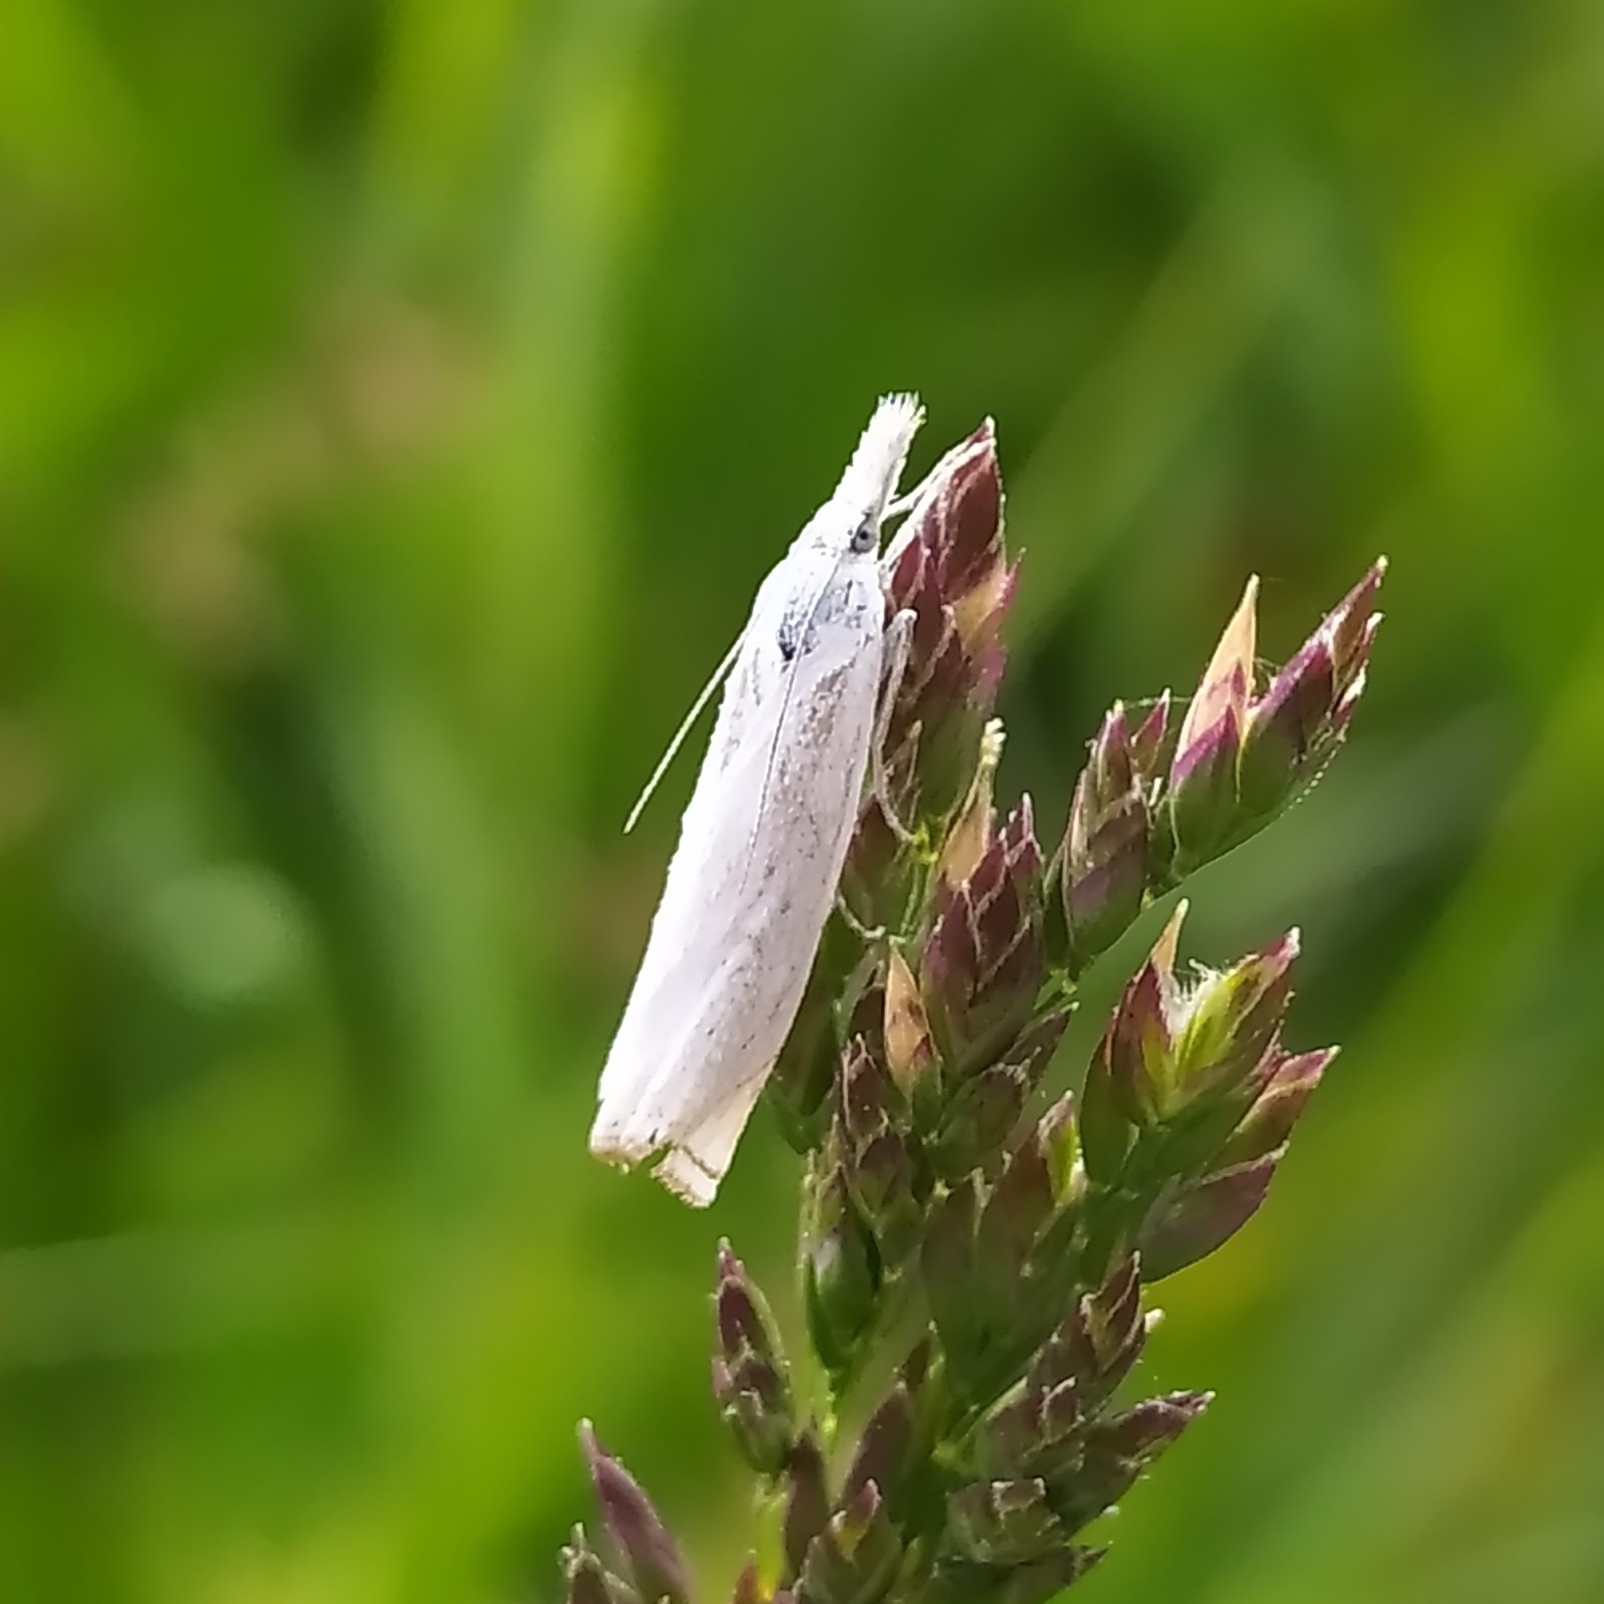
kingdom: Animalia
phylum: Arthropoda
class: Insecta
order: Lepidoptera
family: Crambidae
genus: Crambus
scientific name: Crambus nemorella
